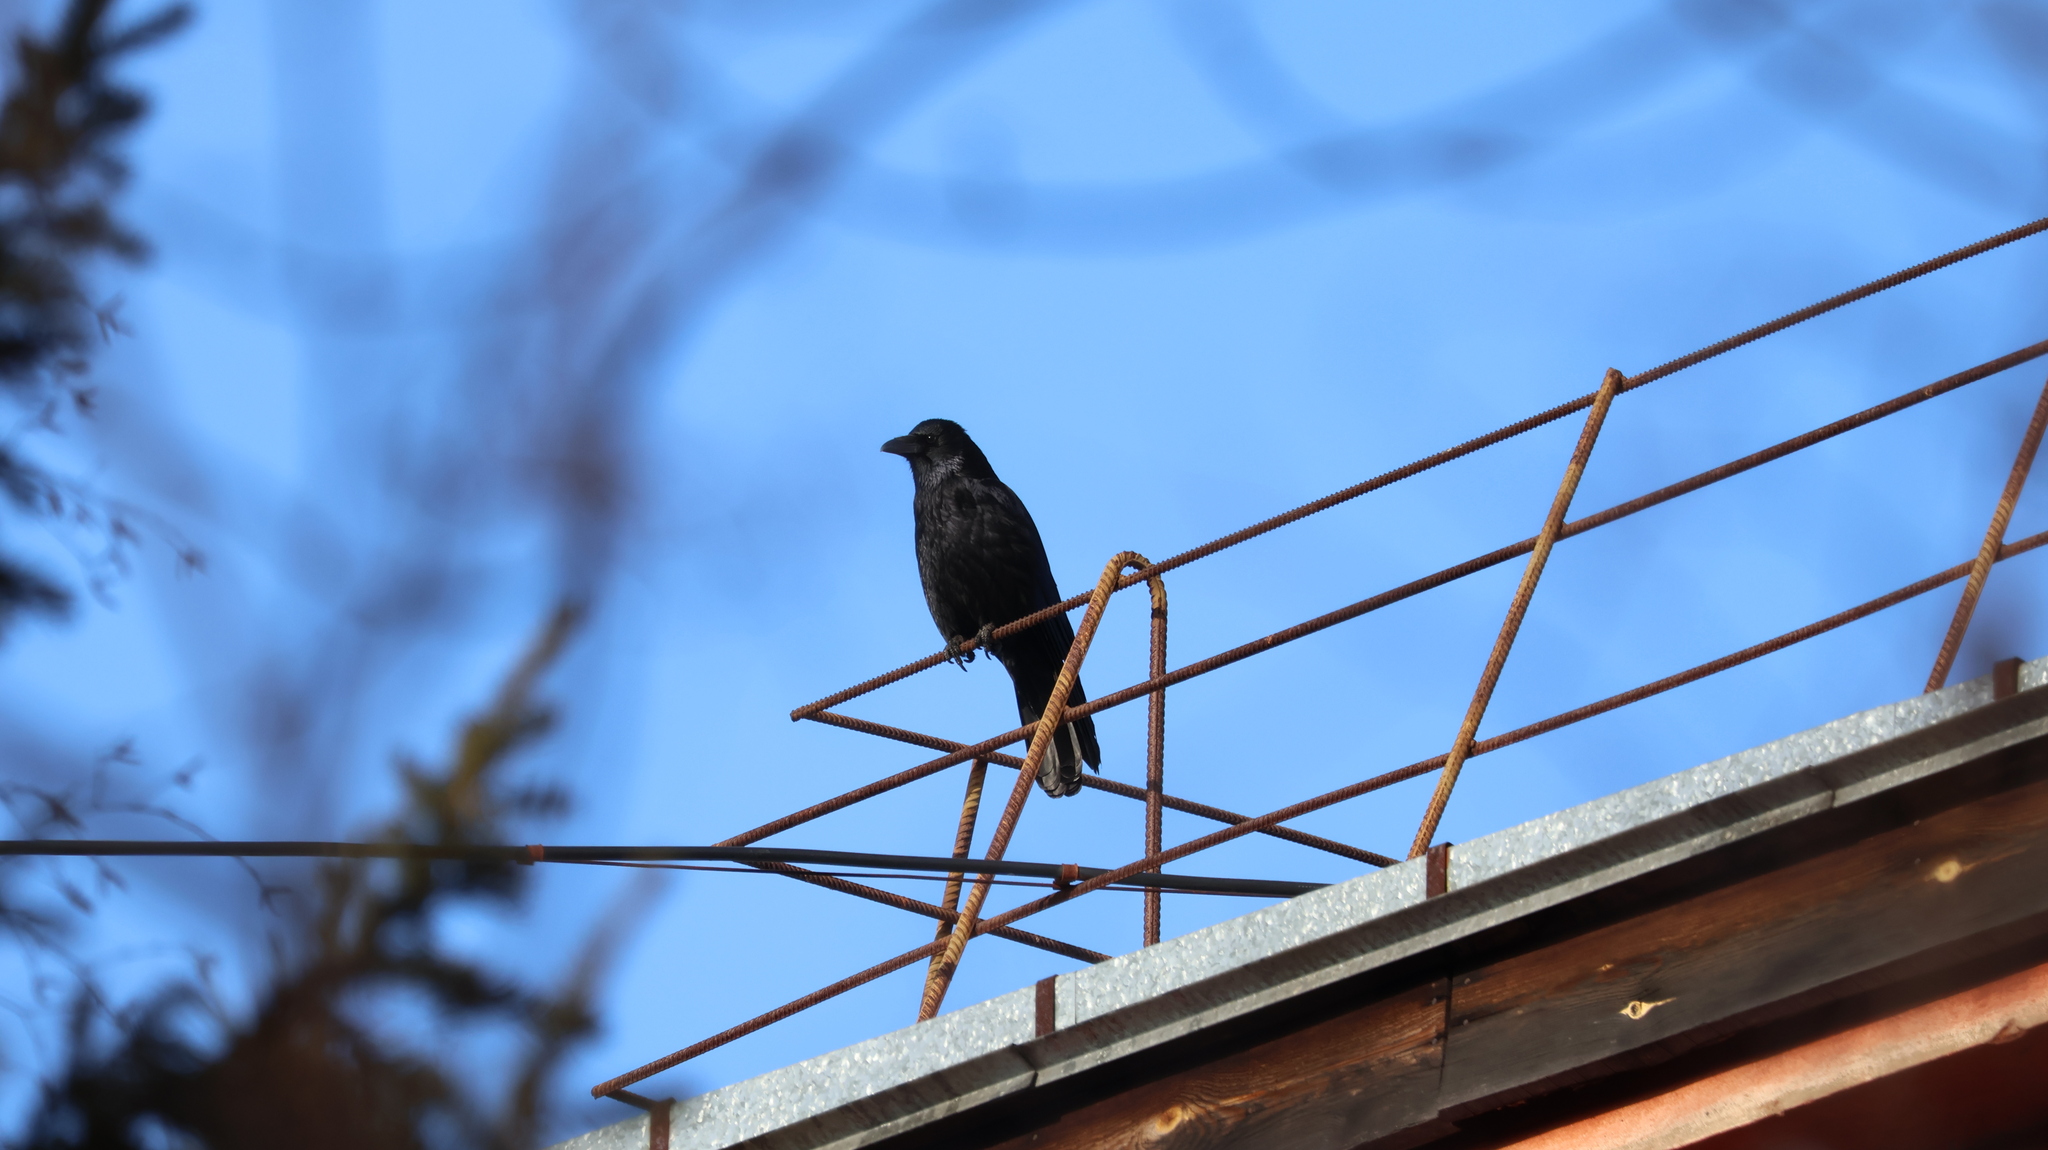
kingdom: Animalia
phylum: Chordata
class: Aves
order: Passeriformes
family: Corvidae
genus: Corvus
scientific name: Corvus corone
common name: Carrion crow
